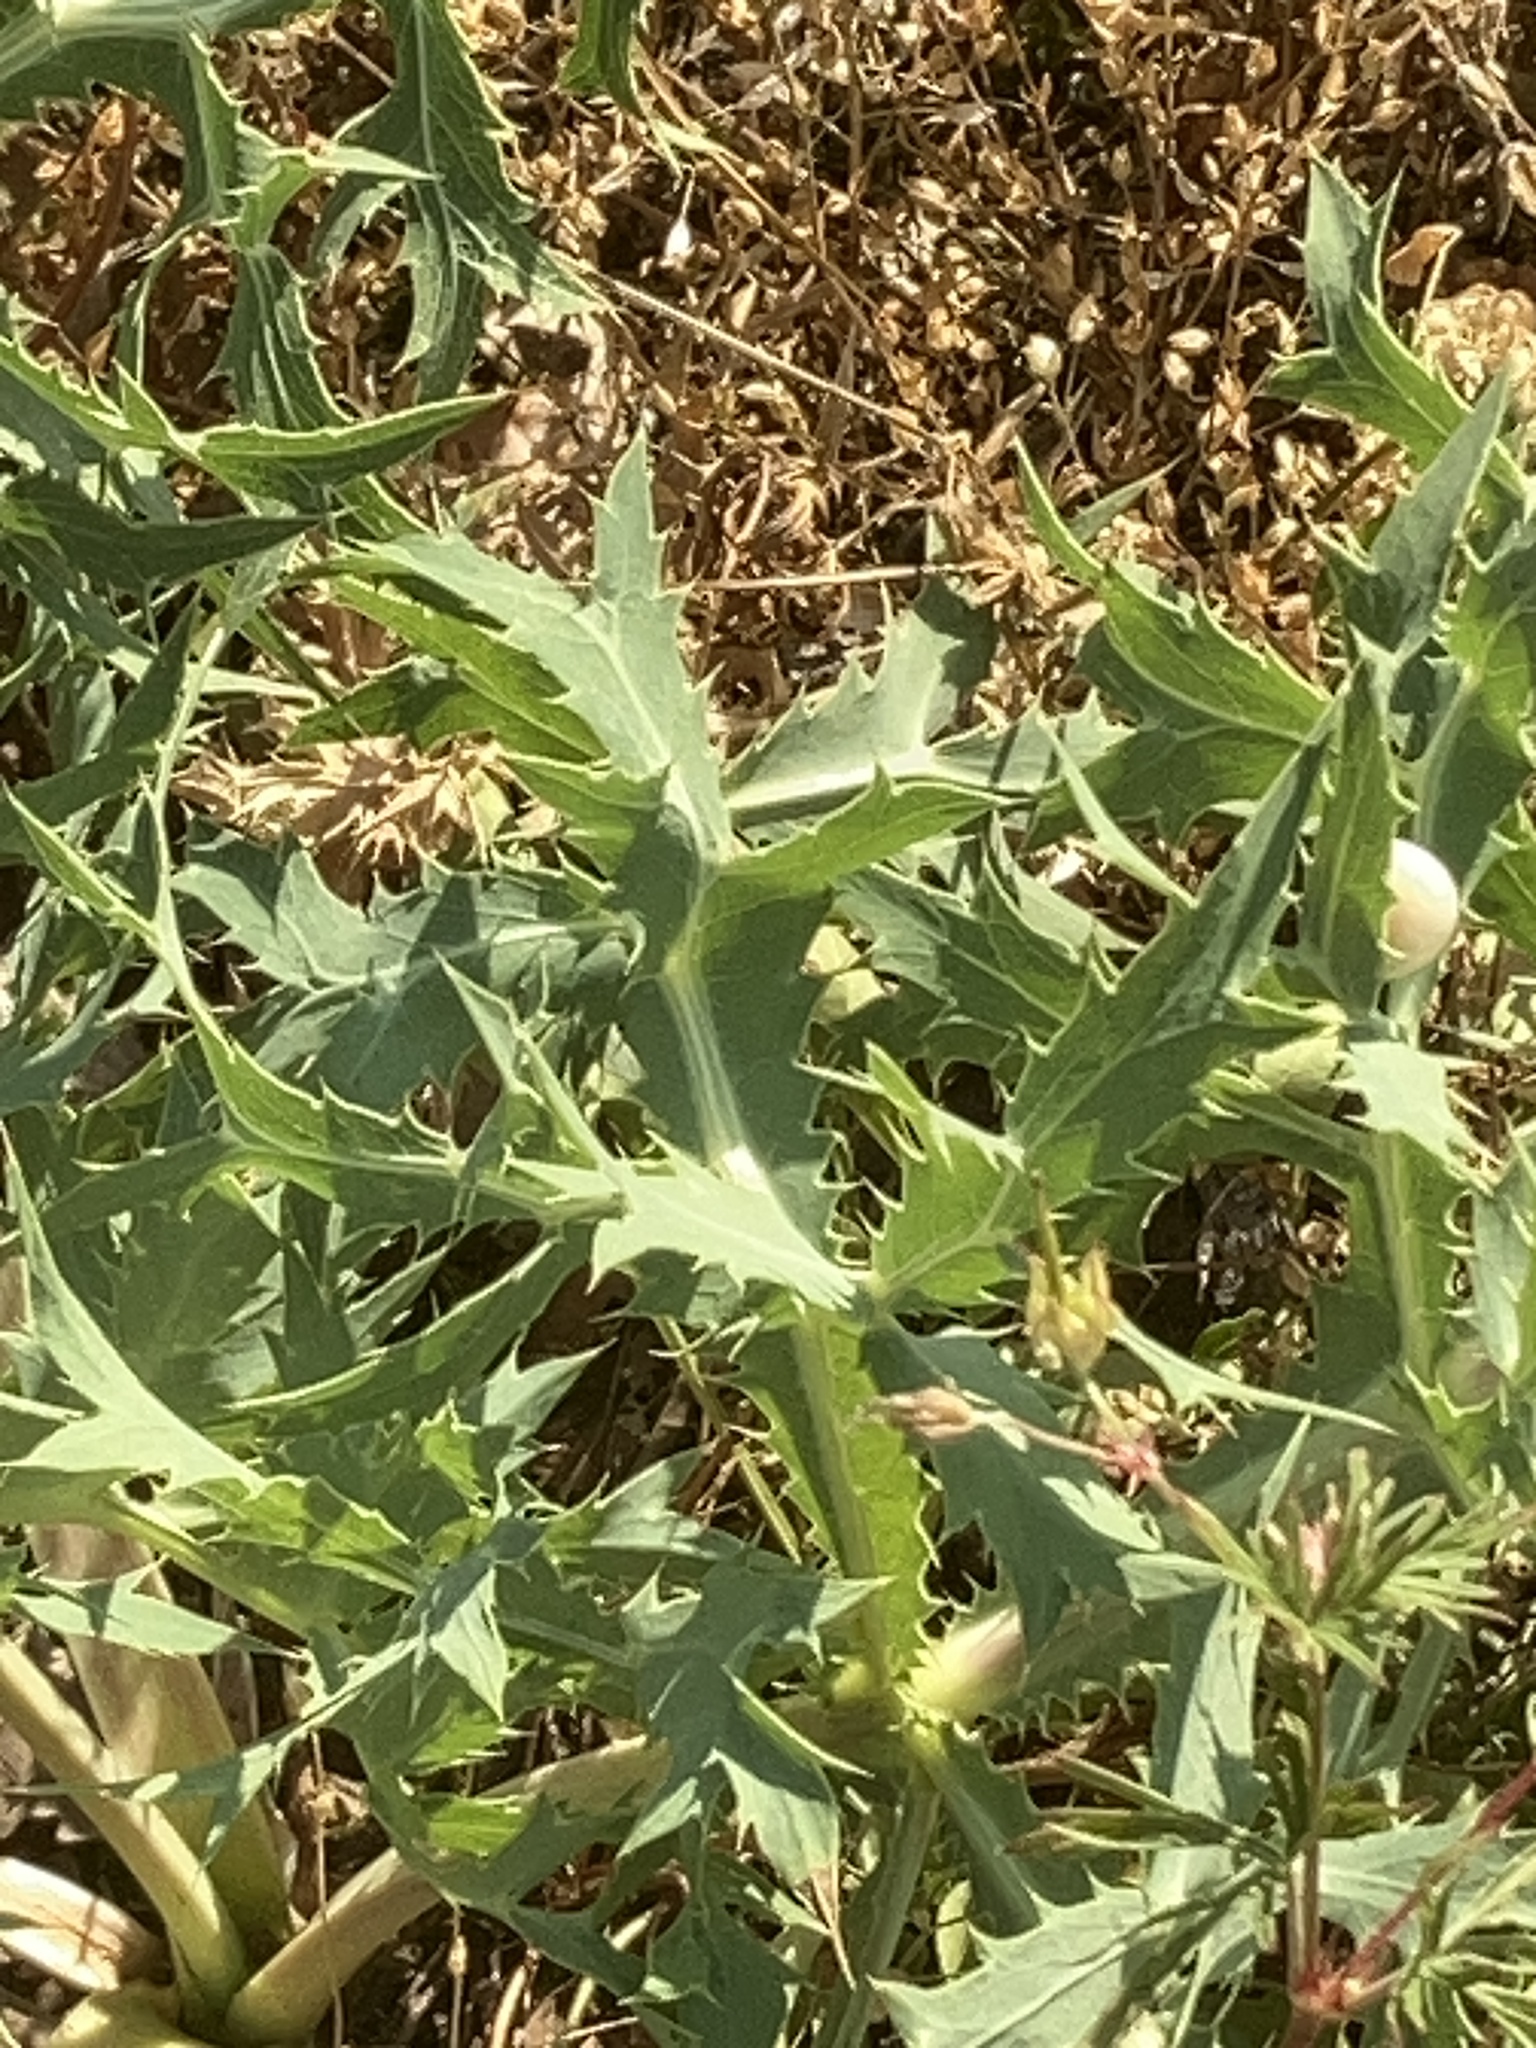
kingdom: Plantae
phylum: Tracheophyta
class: Magnoliopsida
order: Apiales
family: Apiaceae
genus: Eryngium
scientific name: Eryngium campestre
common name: Field eryngo
